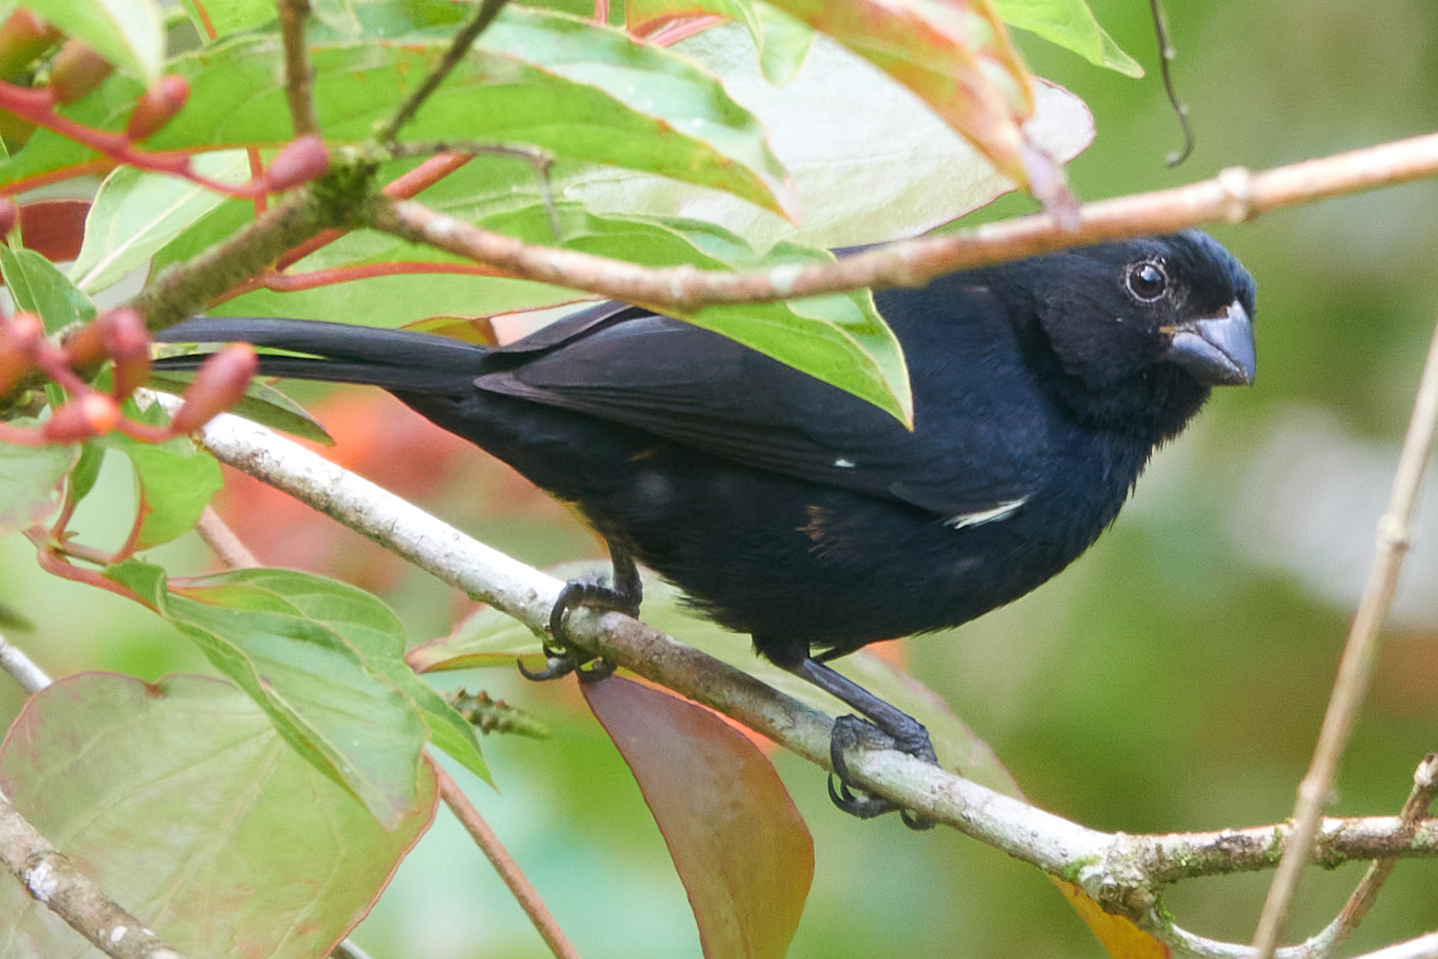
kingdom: Animalia
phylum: Chordata
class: Aves
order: Passeriformes
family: Thraupidae
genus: Sporophila
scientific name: Sporophila corvina
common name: Variable seedeater
